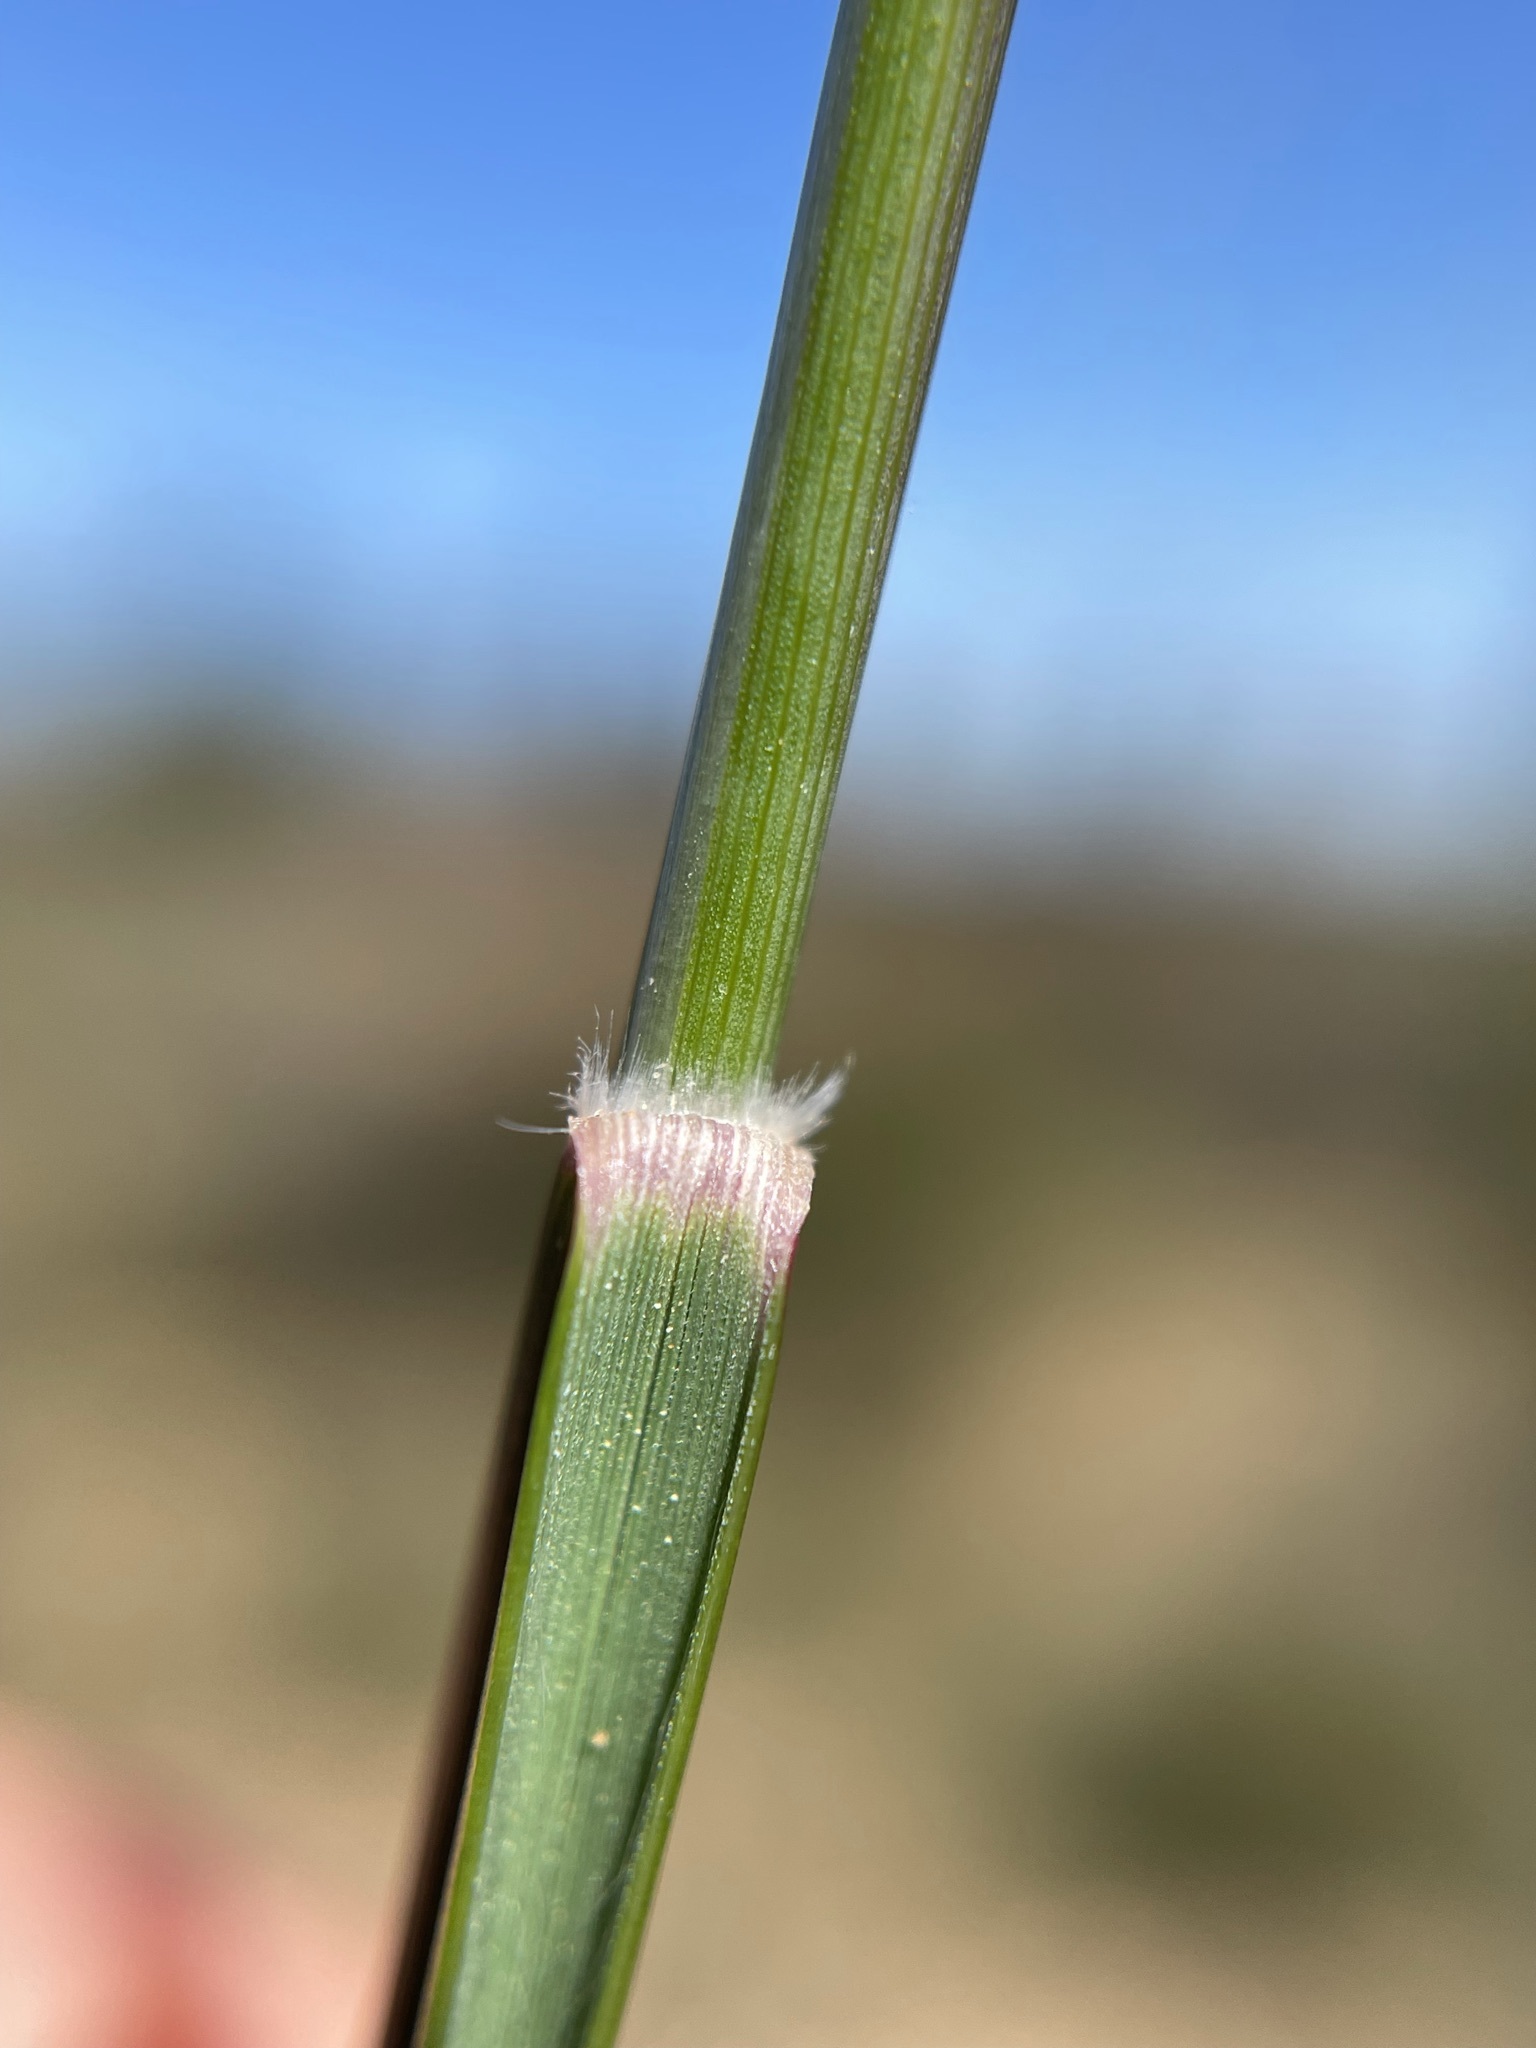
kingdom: Plantae
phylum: Tracheophyta
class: Liliopsida
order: Poales
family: Poaceae
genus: Tribolium
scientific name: Tribolium uniolae
